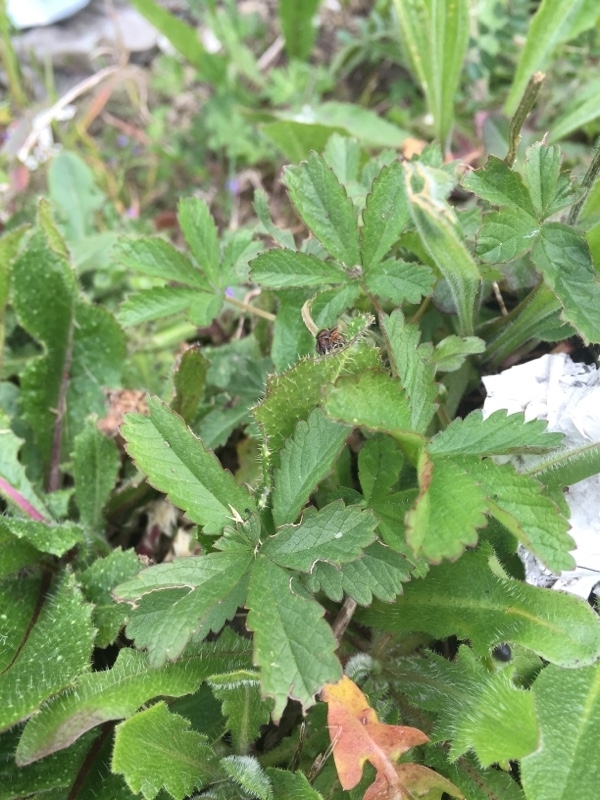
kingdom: Plantae
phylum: Tracheophyta
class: Magnoliopsida
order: Rosales
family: Rosaceae
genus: Potentilla
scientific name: Potentilla reptans
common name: Creeping cinquefoil
